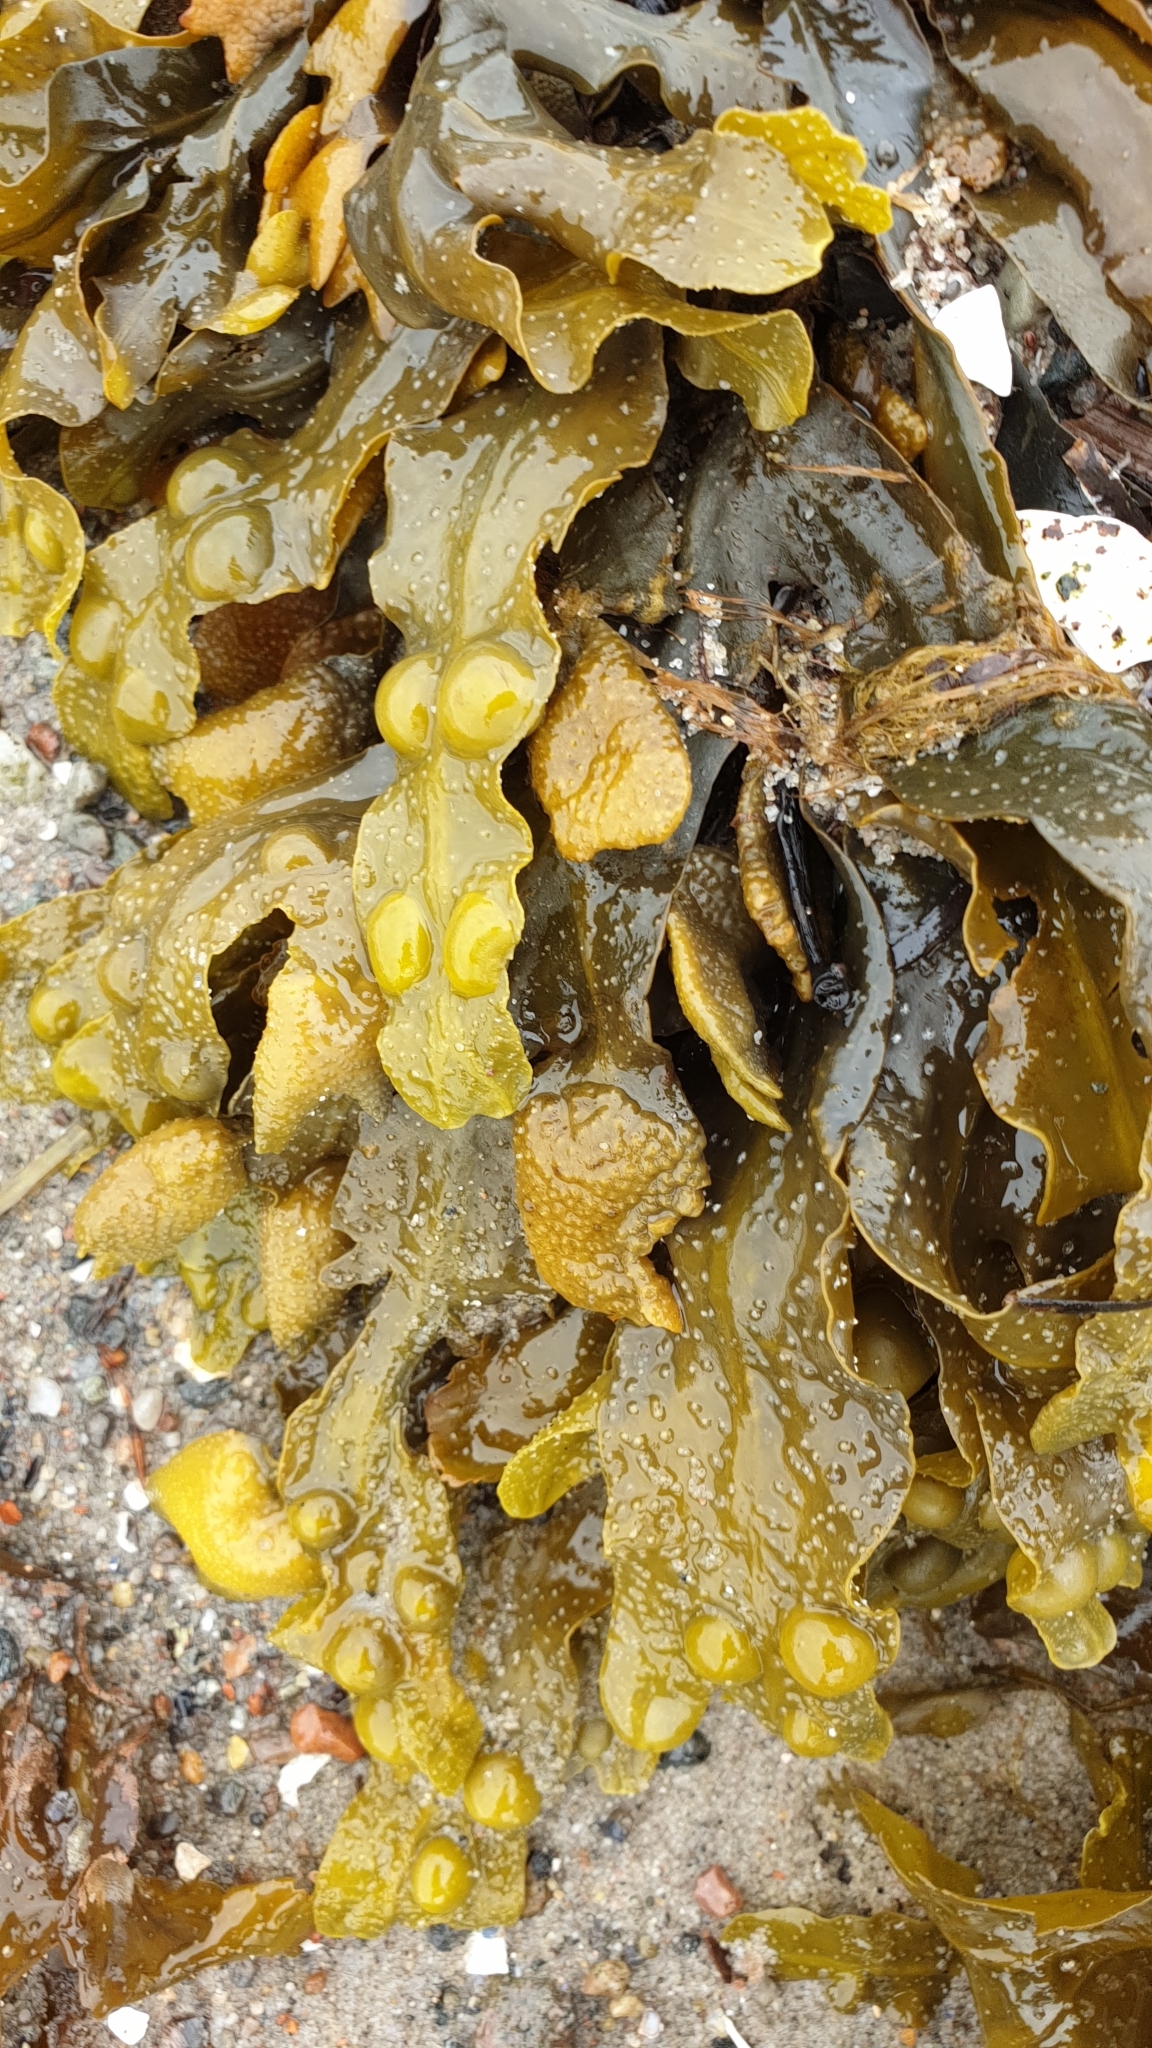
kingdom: Chromista
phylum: Ochrophyta
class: Phaeophyceae
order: Fucales
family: Fucaceae
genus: Fucus
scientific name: Fucus vesiculosus
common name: Bladder wrack
